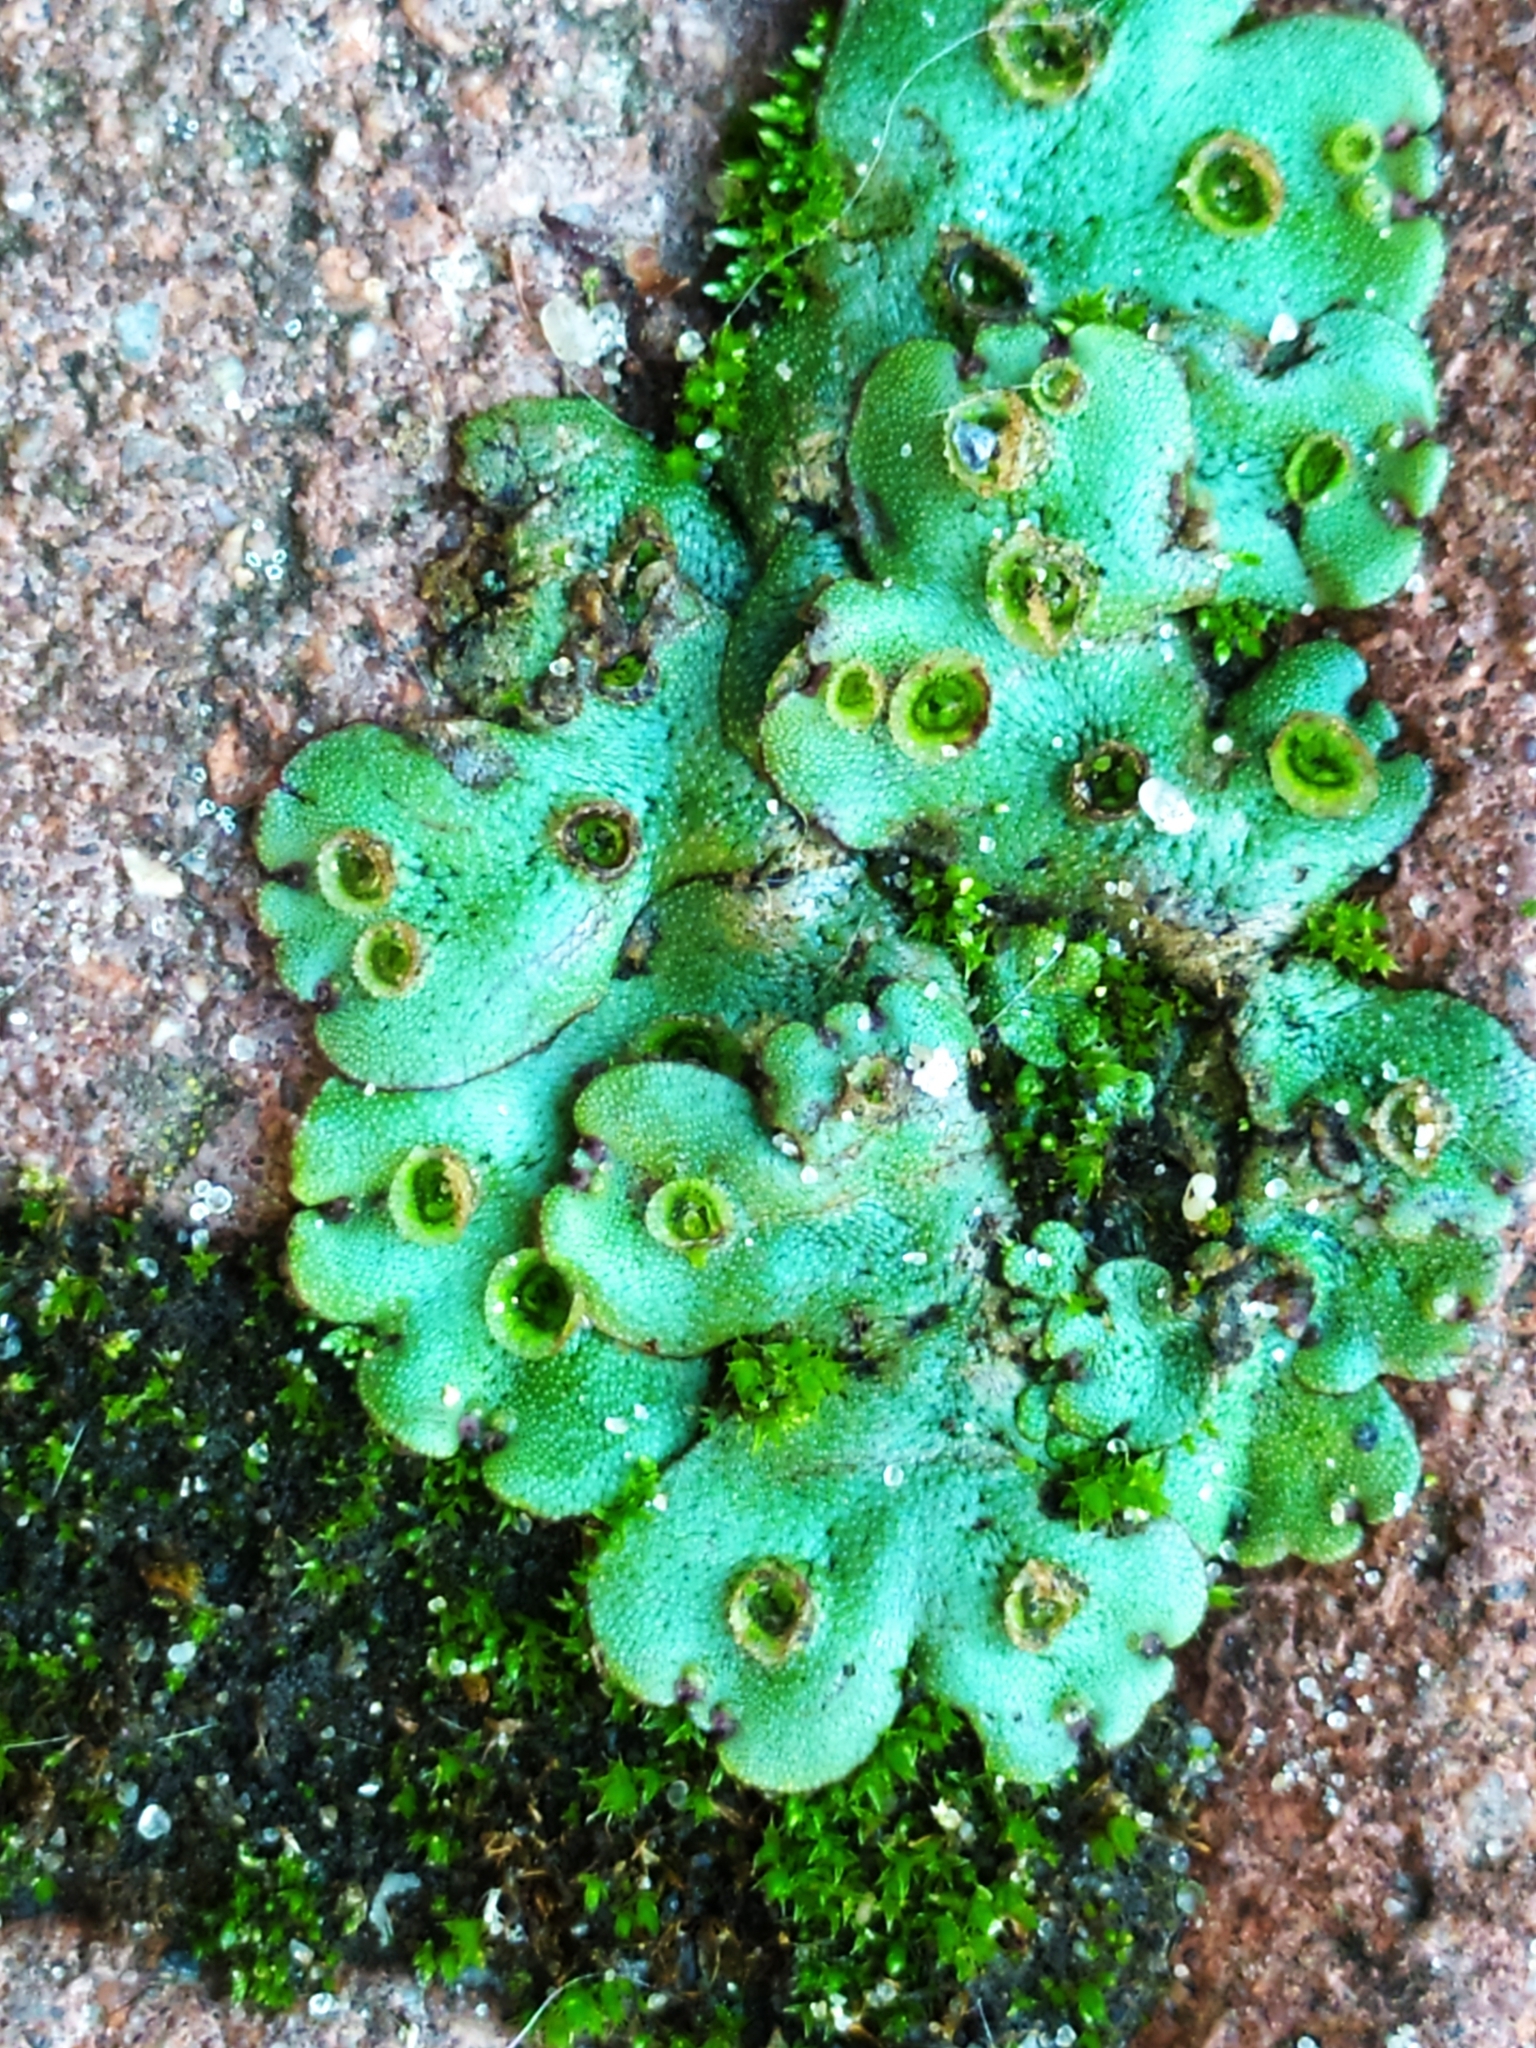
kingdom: Plantae
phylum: Marchantiophyta
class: Marchantiopsida
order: Marchantiales
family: Marchantiaceae
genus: Marchantia
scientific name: Marchantia polymorpha
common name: Common liverwort
